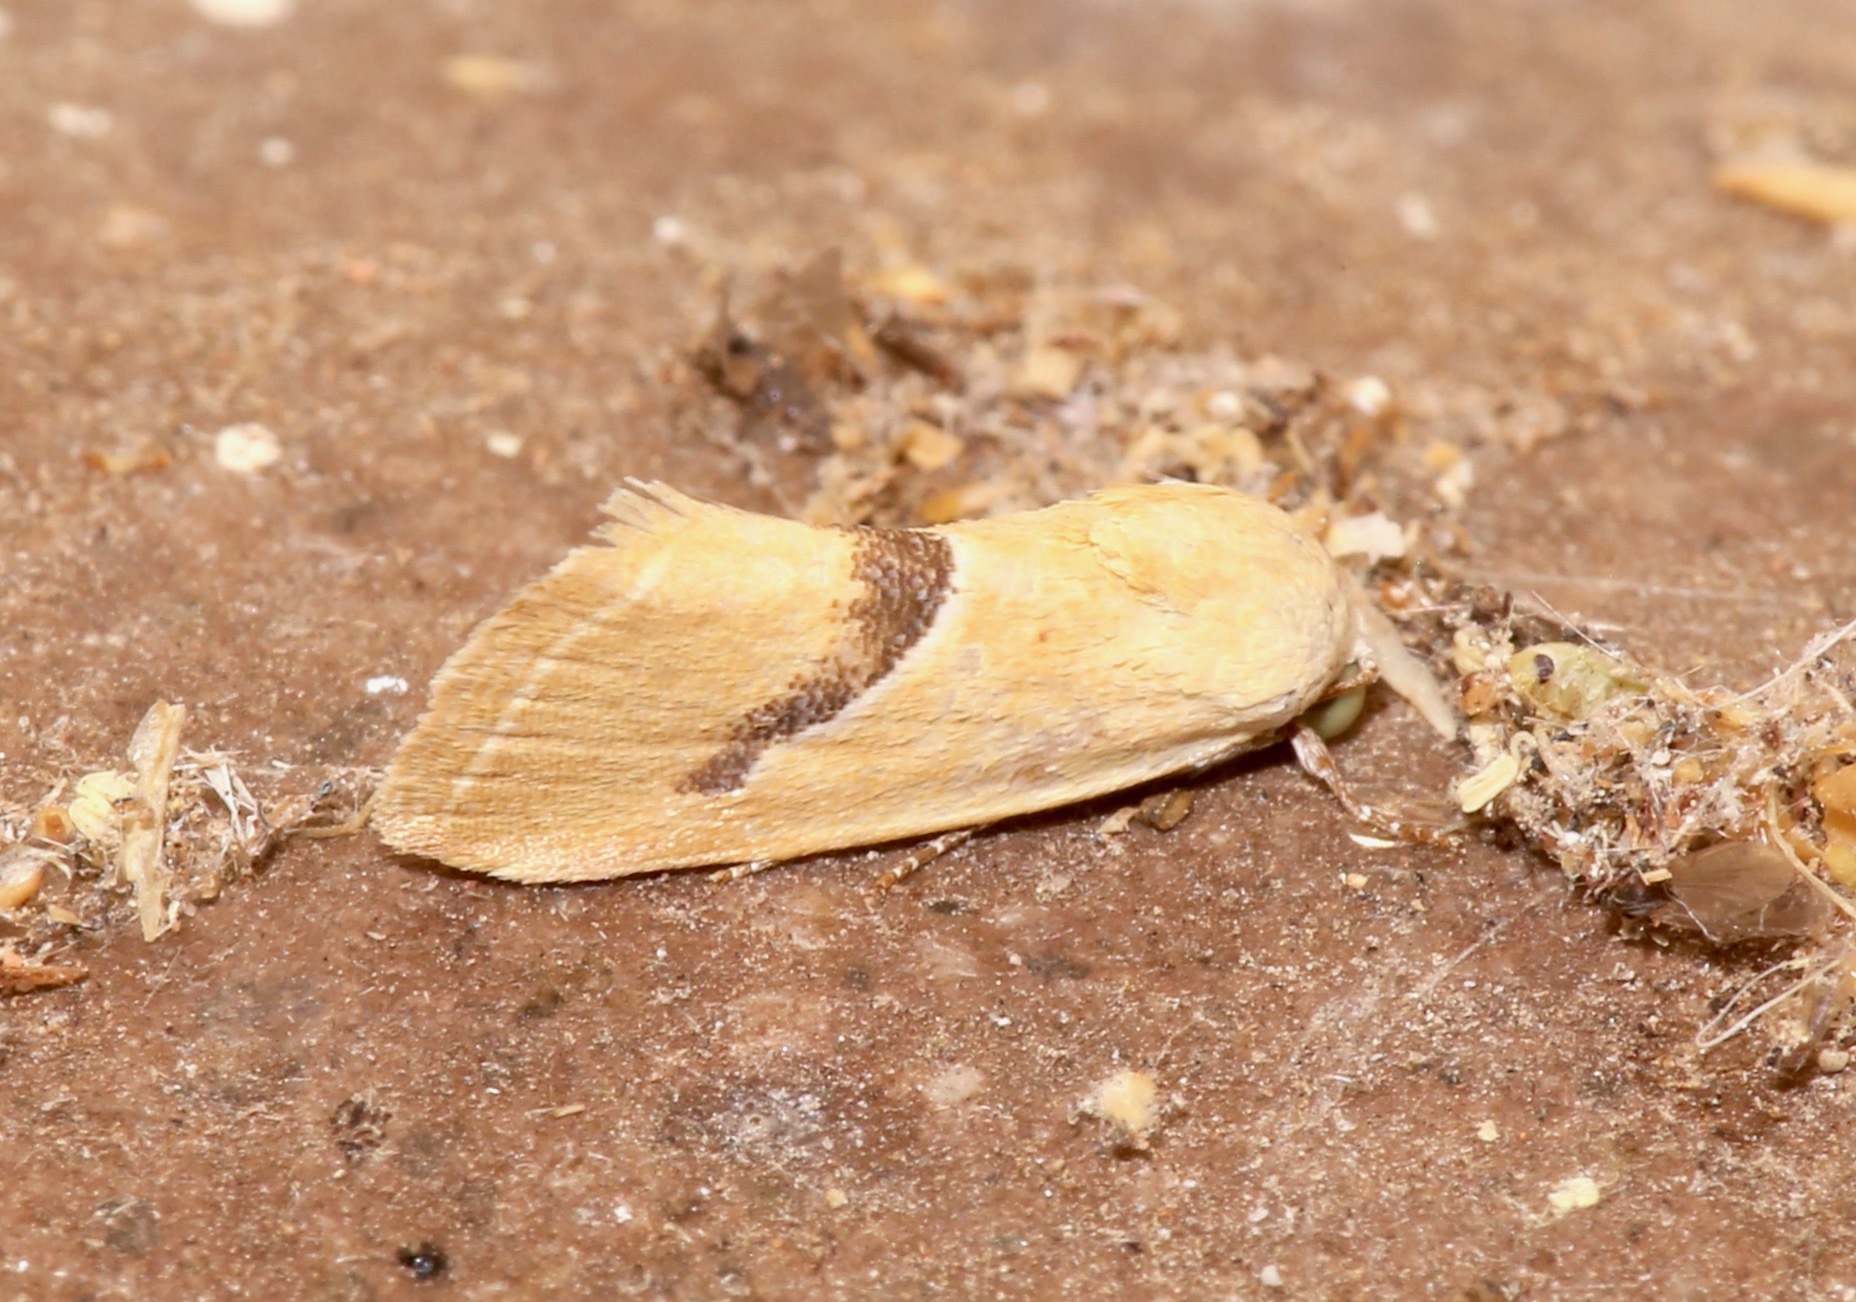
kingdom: Animalia
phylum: Arthropoda
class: Insecta
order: Lepidoptera
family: Noctuidae
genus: Ponometia
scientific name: Ponometia venustula
